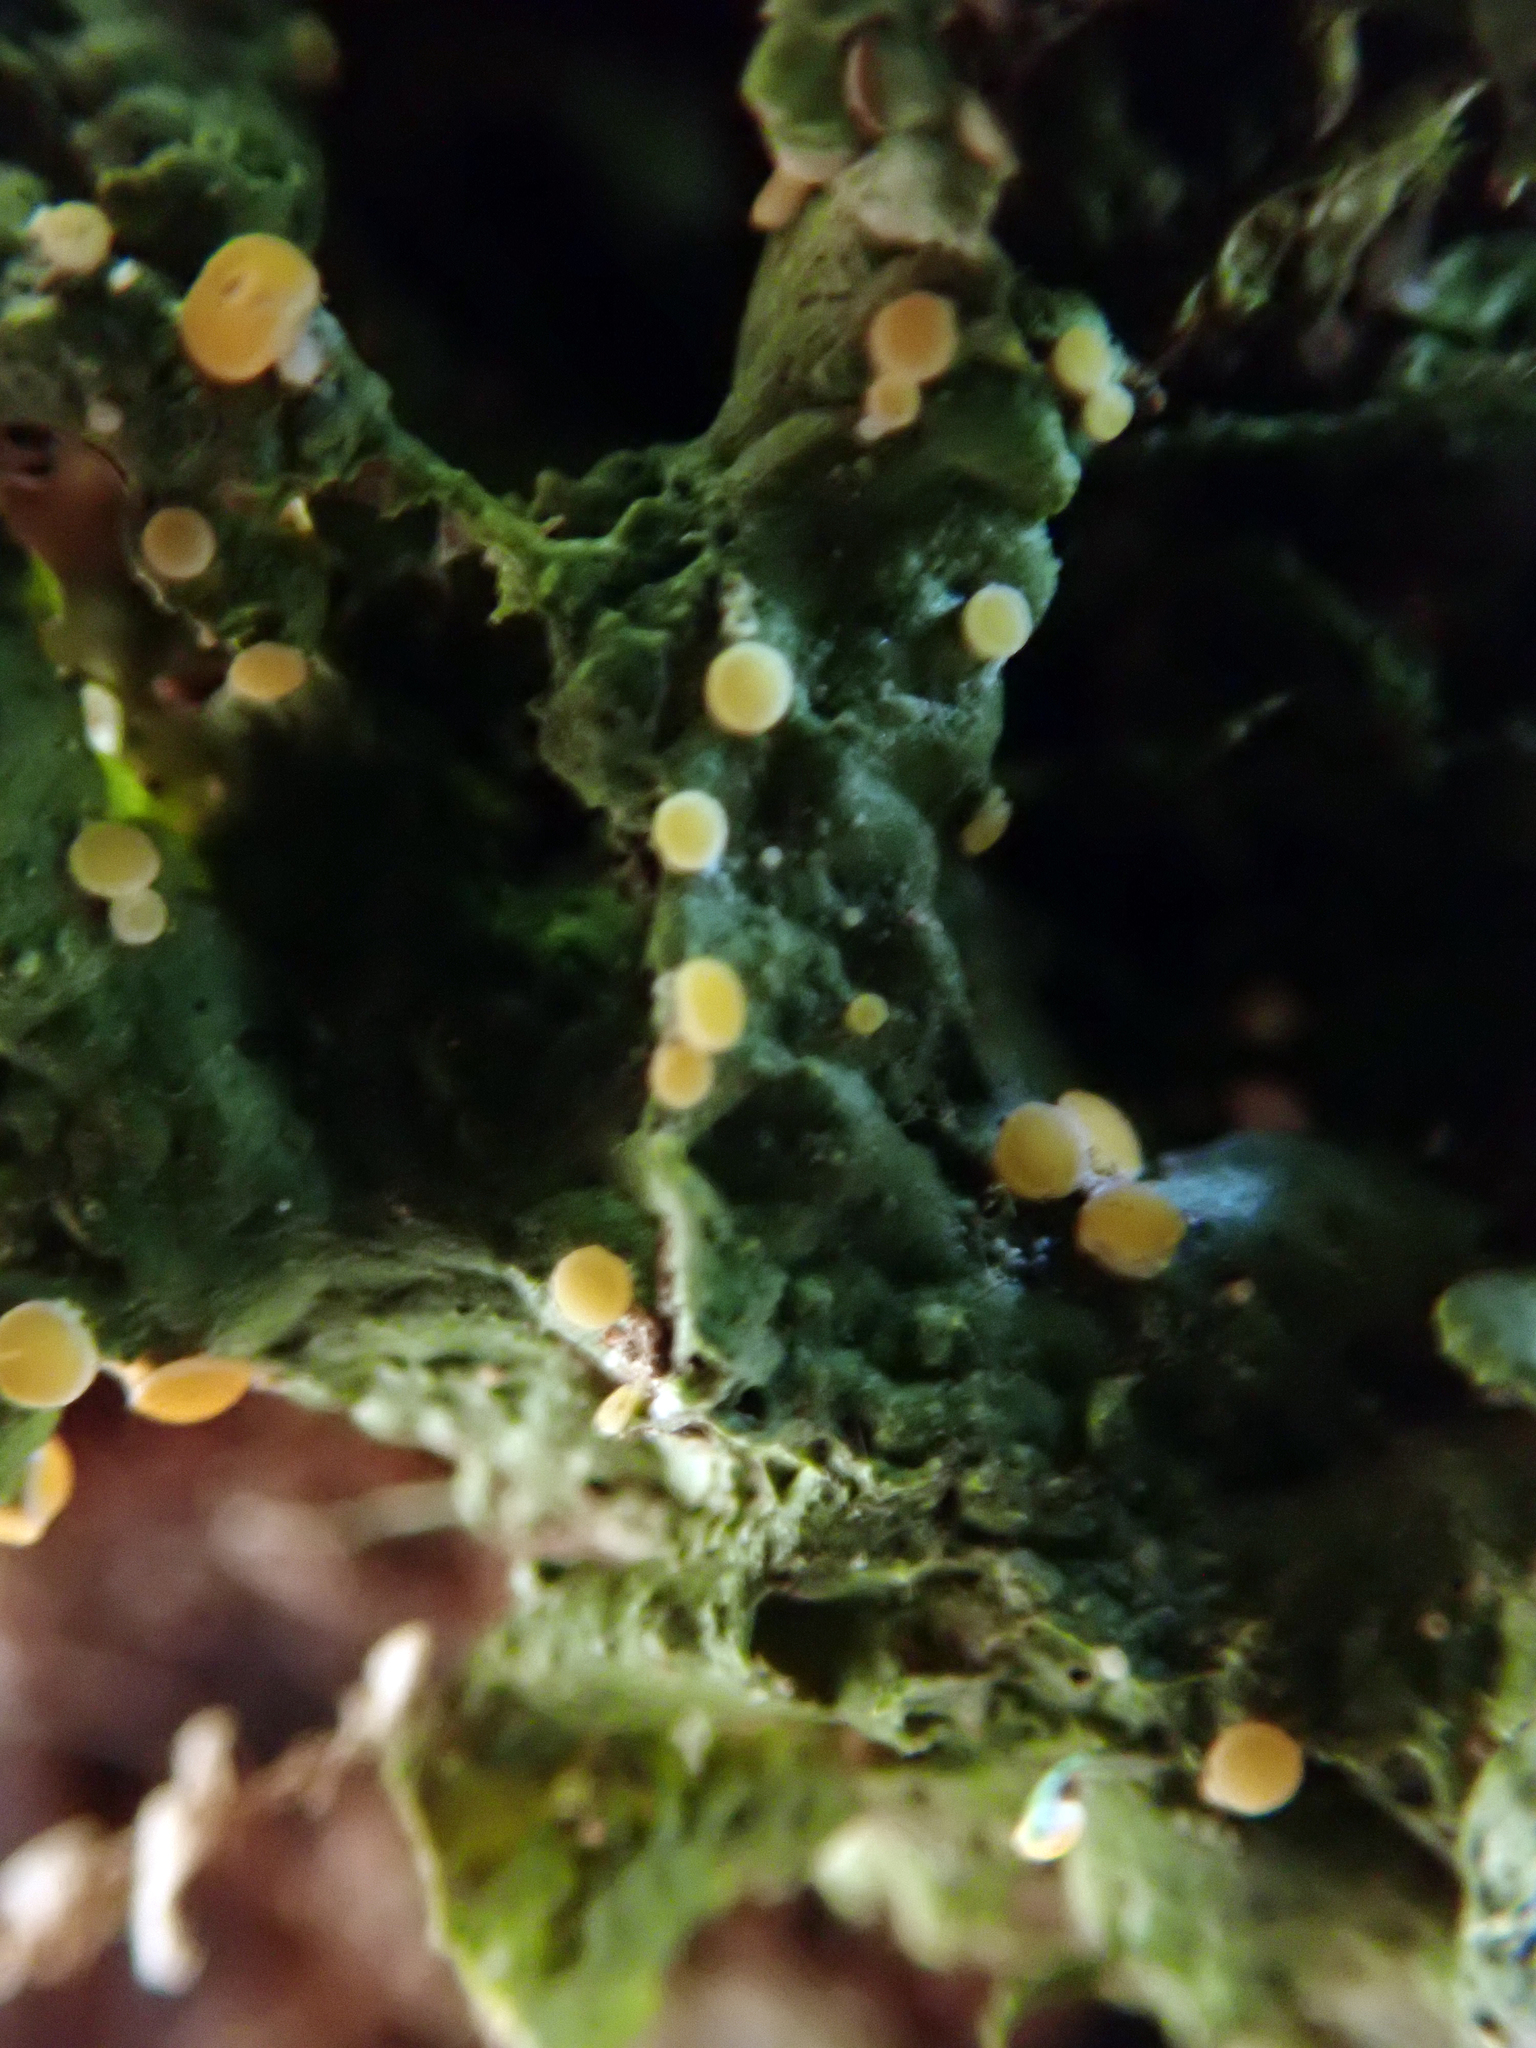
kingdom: Fungi
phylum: Ascomycota
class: Lecanoromycetes
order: Ostropales
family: Coenogoniaceae
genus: Coenogonium
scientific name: Coenogonium luteum
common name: Orange dimple lichen
